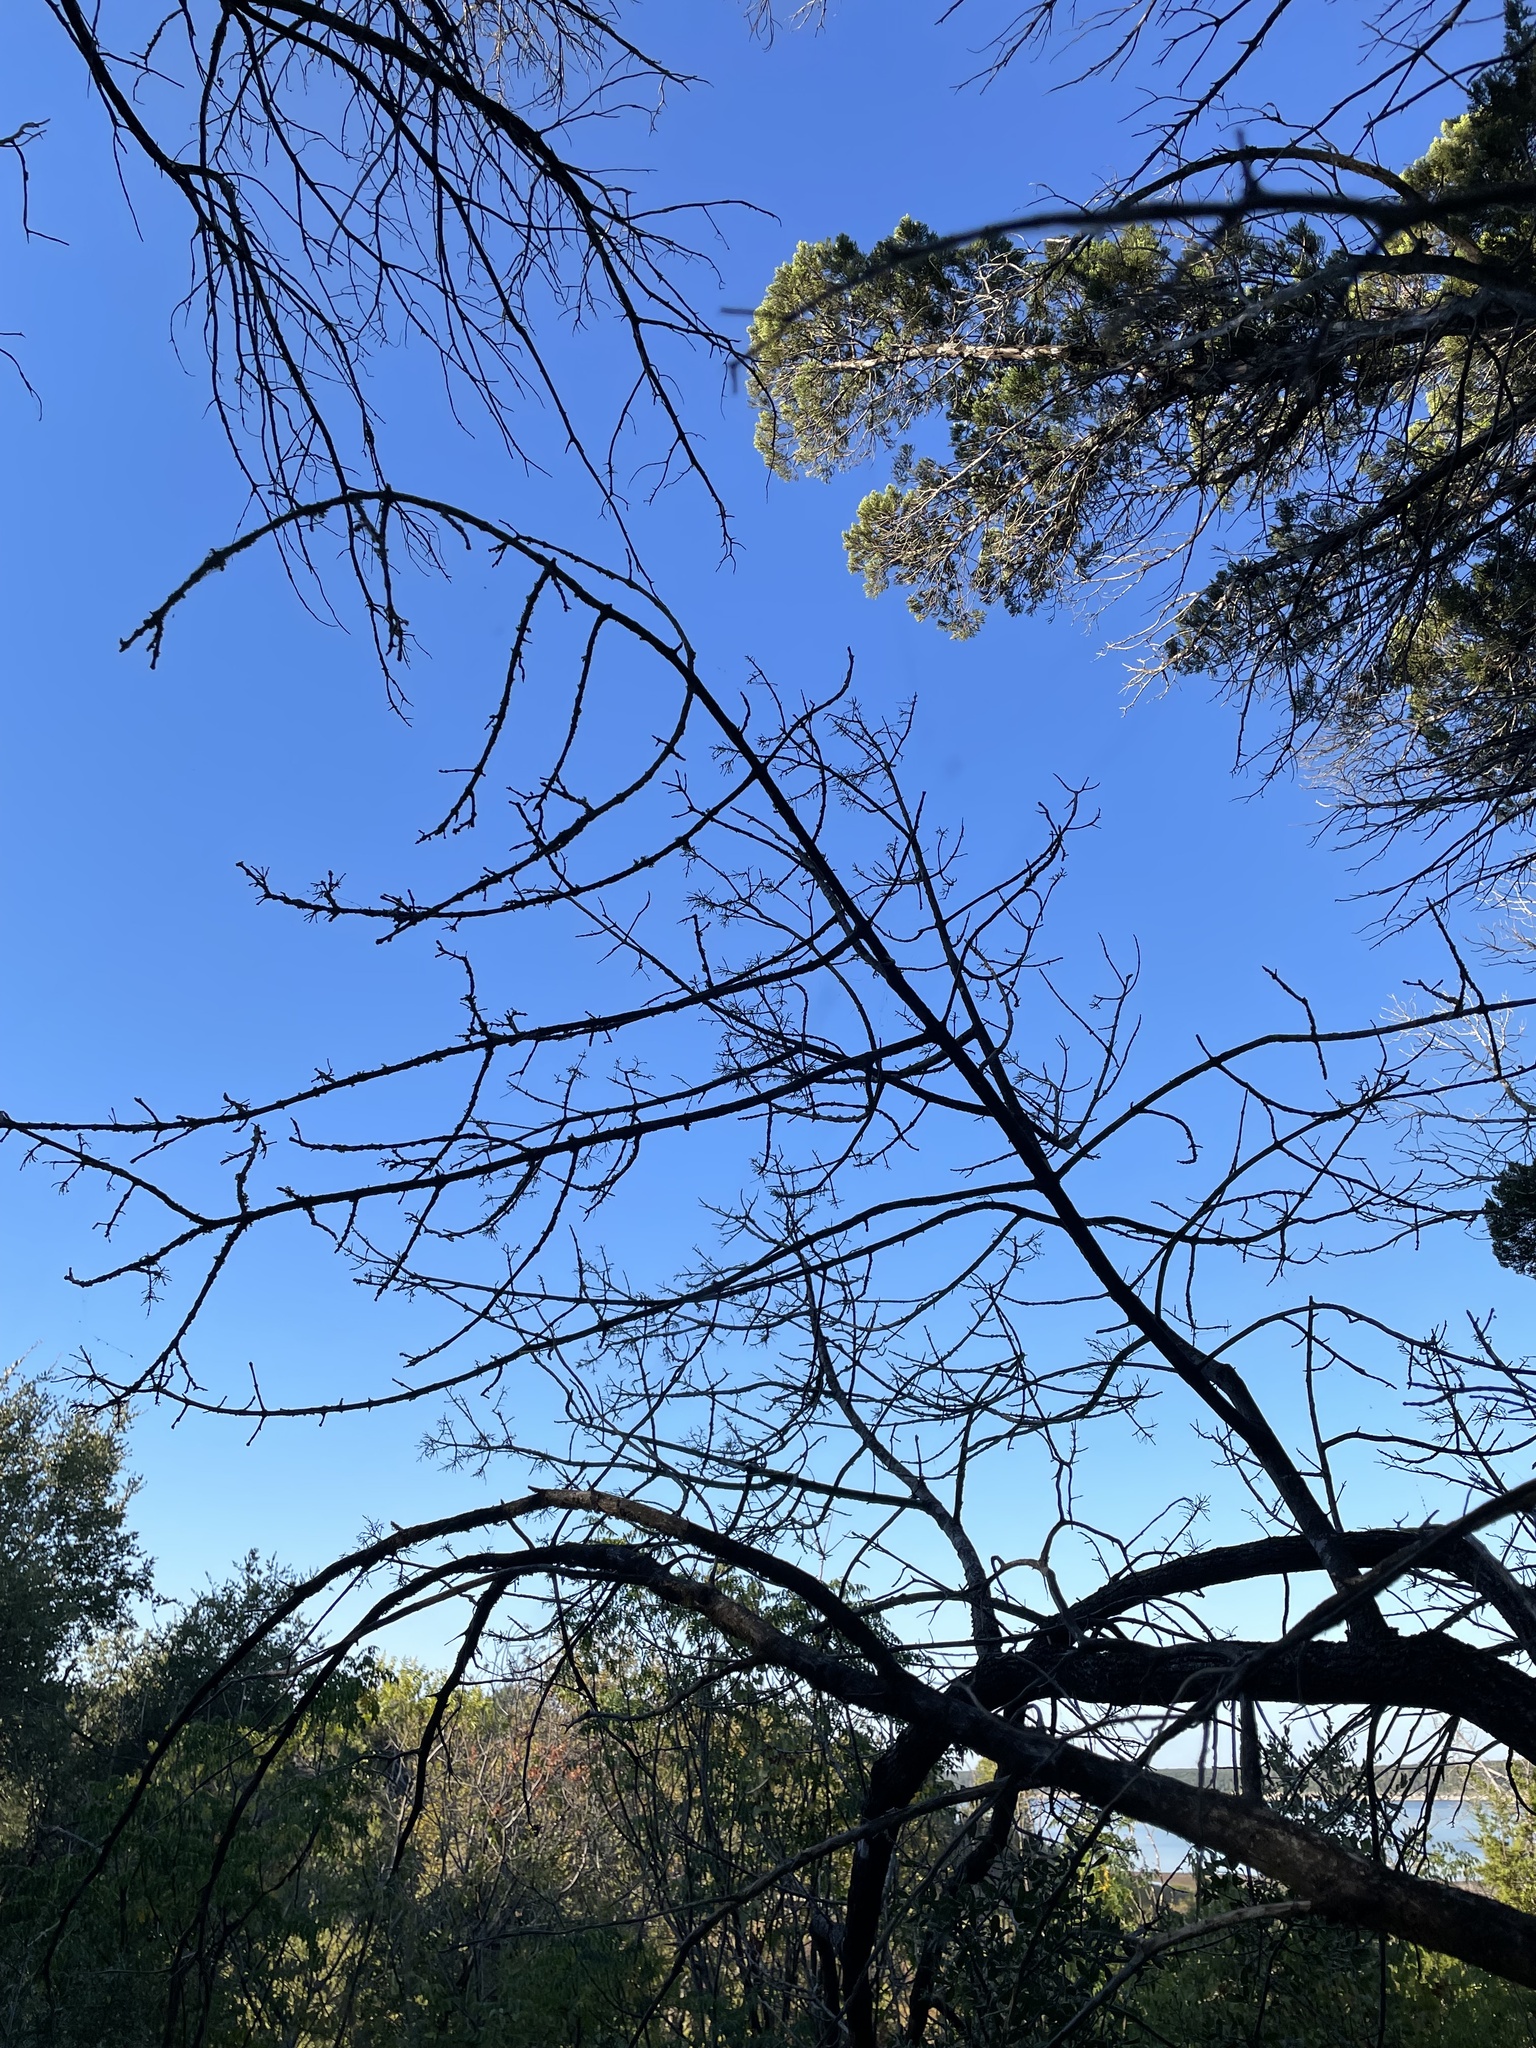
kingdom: Plantae
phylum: Tracheophyta
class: Magnoliopsida
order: Lamiales
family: Oleaceae
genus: Fraxinus
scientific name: Fraxinus albicans
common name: Texas ash
